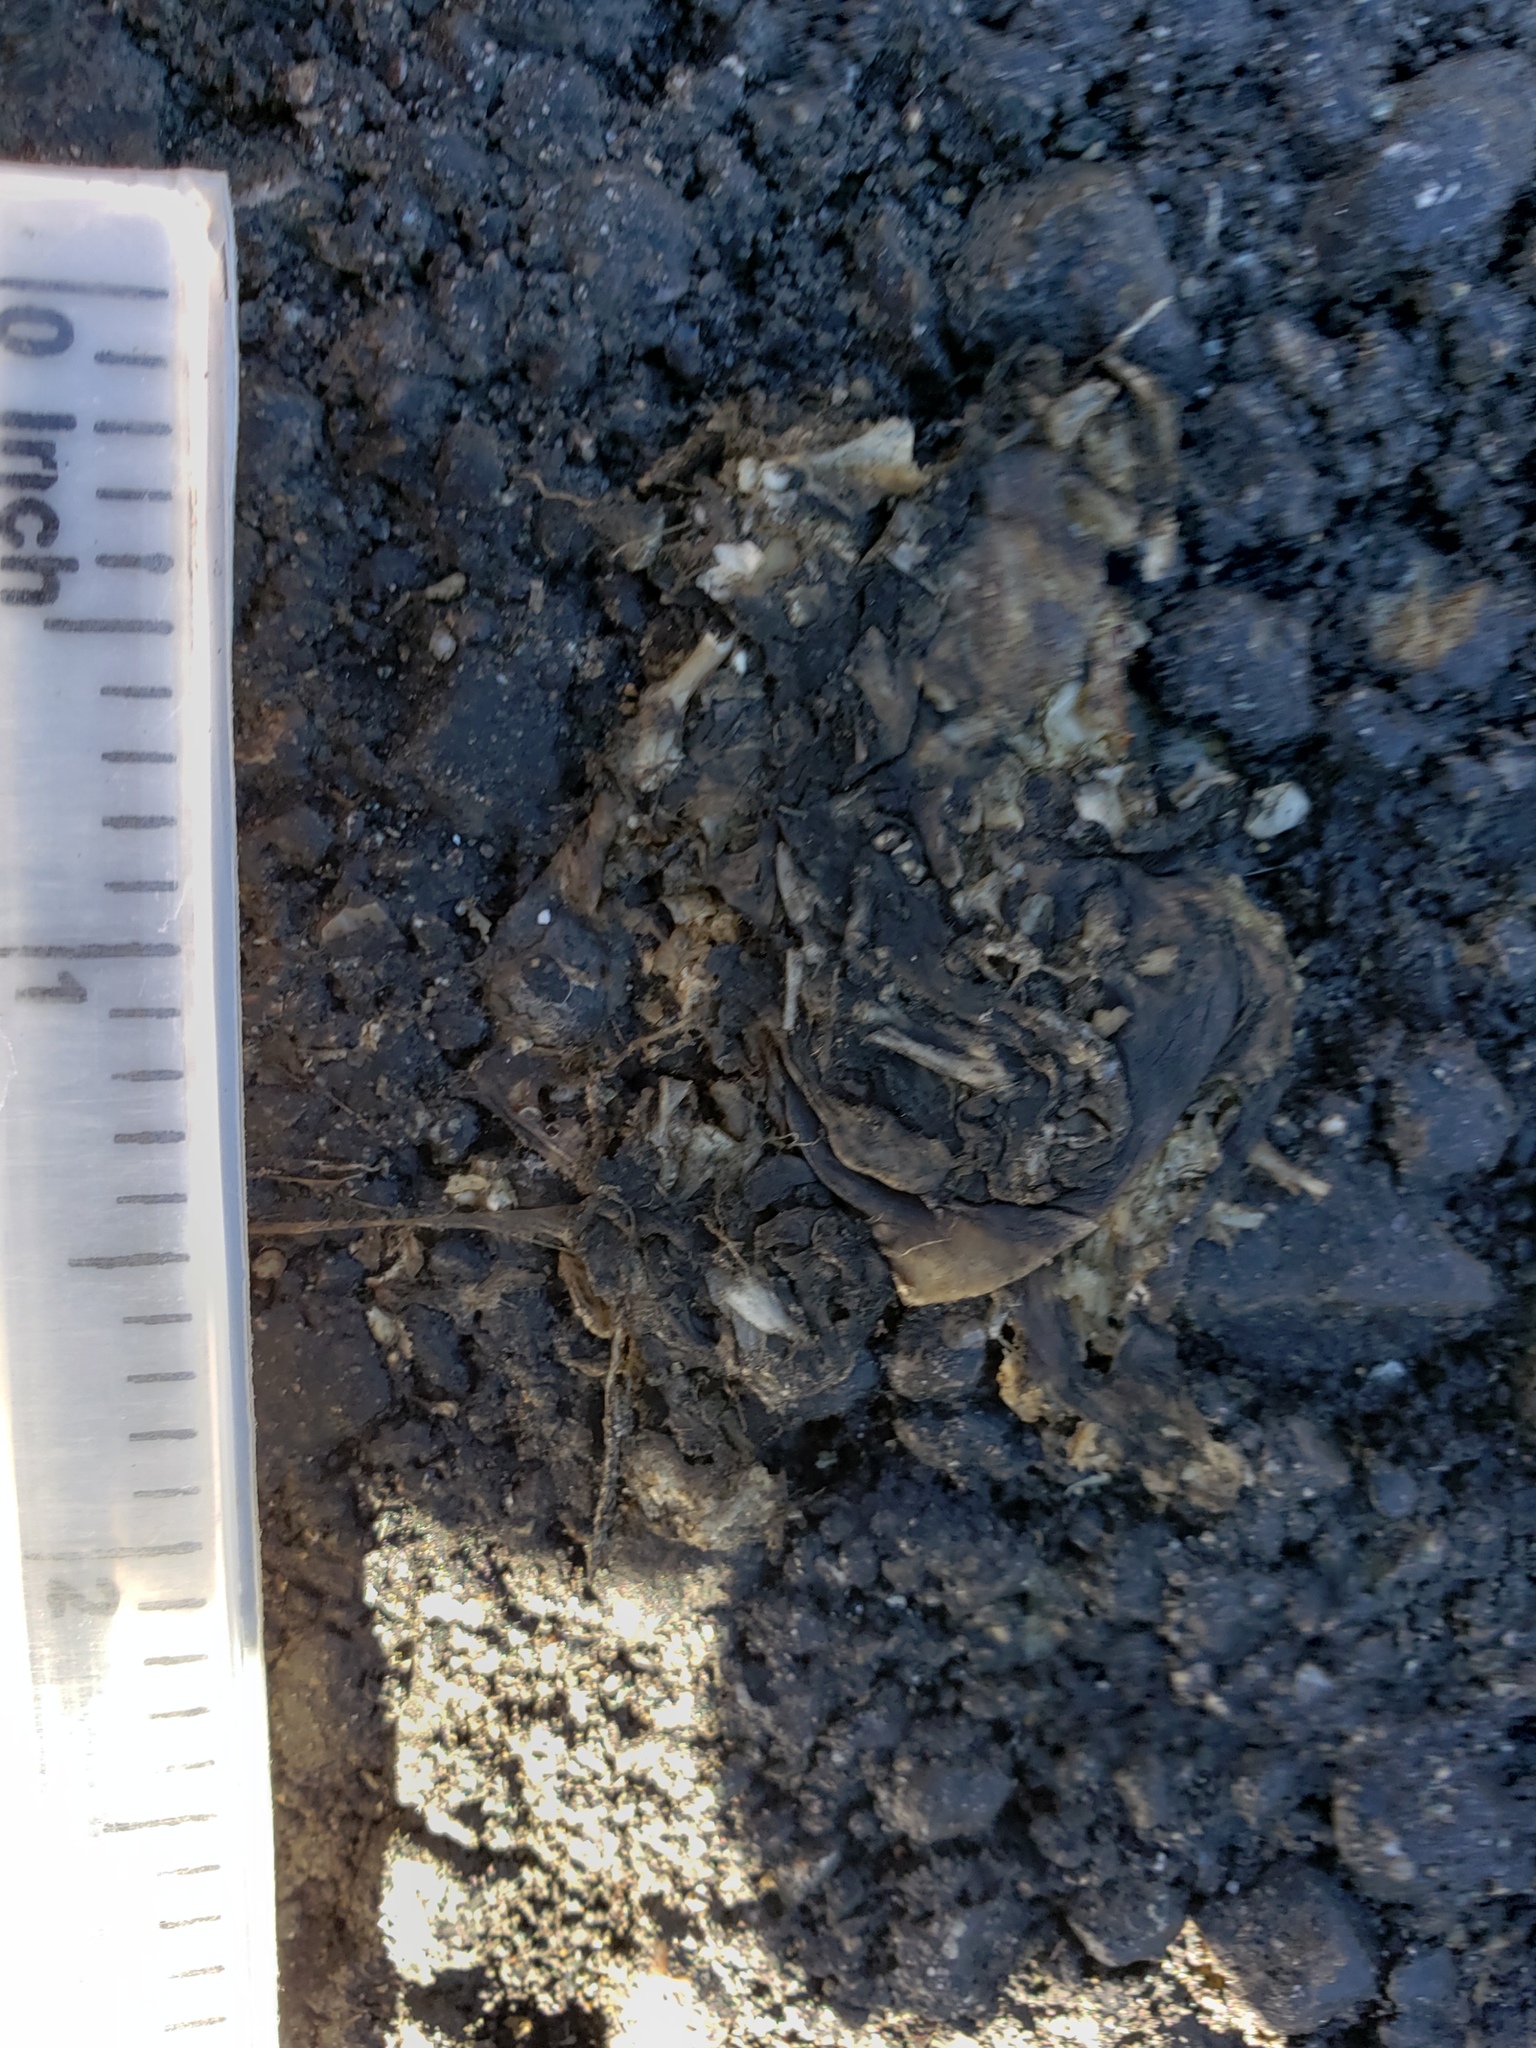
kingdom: Animalia
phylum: Chordata
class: Amphibia
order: Caudata
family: Salamandridae
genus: Taricha
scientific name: Taricha
